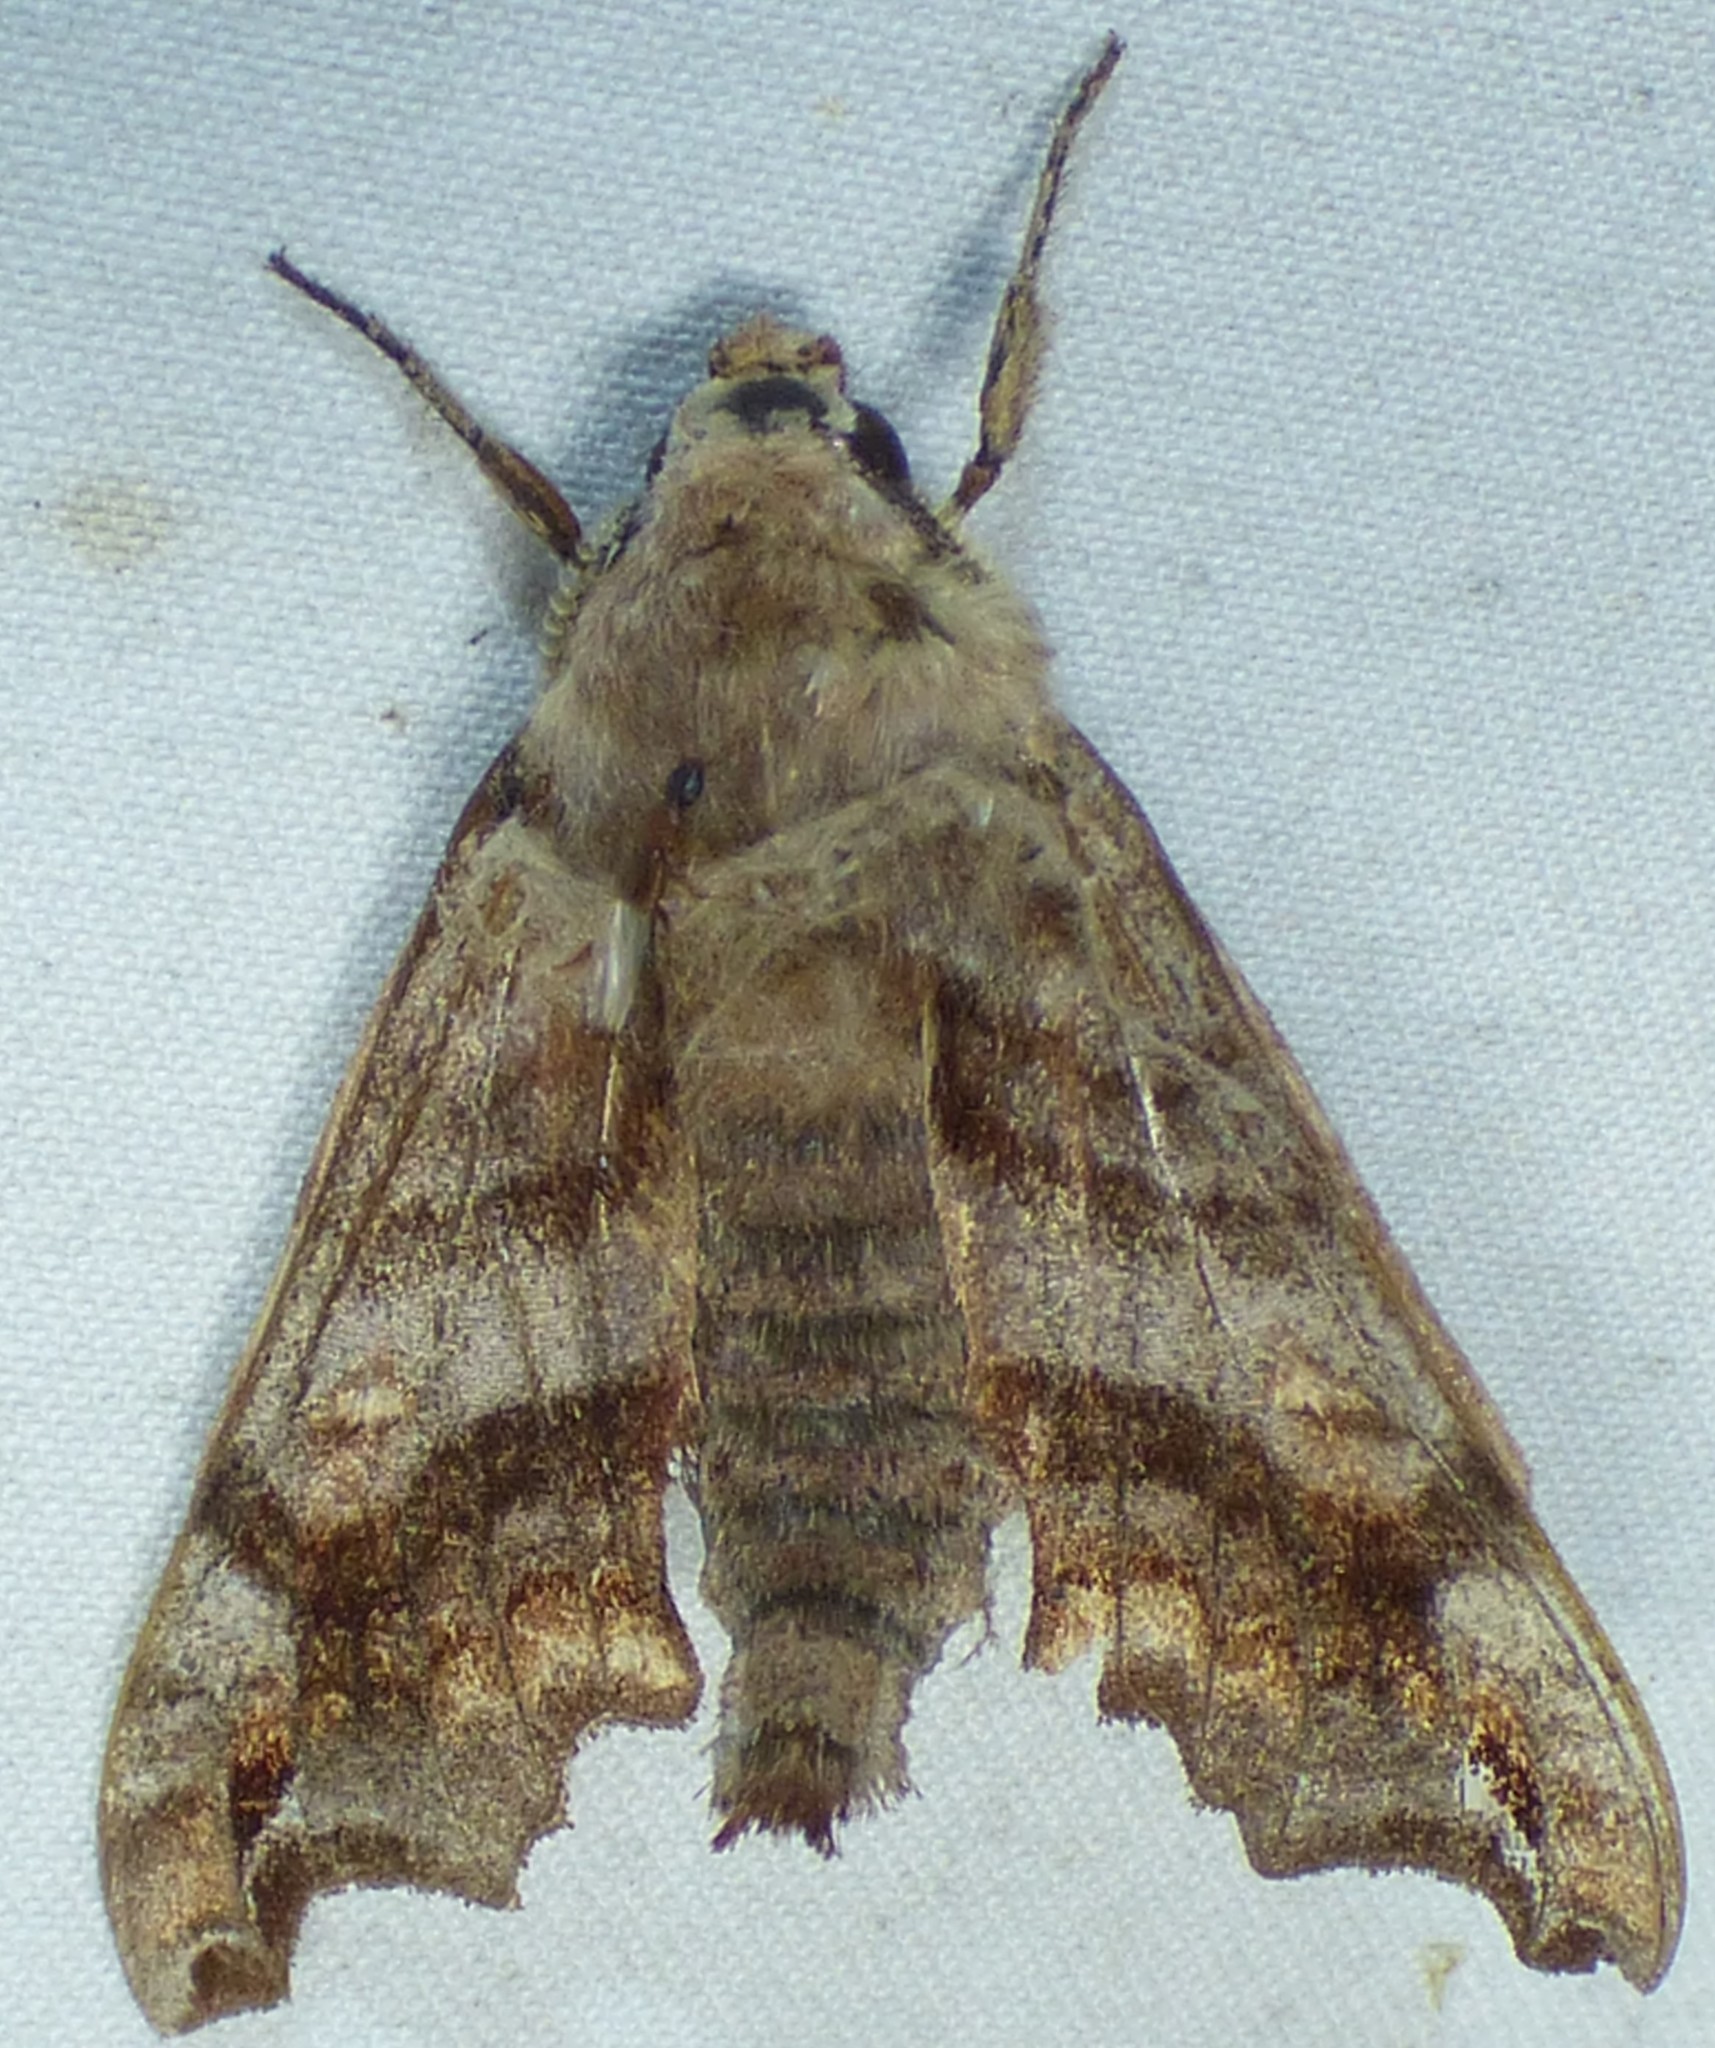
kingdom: Animalia
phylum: Arthropoda
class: Insecta
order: Lepidoptera
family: Sphingidae
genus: Deidamia
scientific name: Deidamia inscriptum
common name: Lettered sphinx
